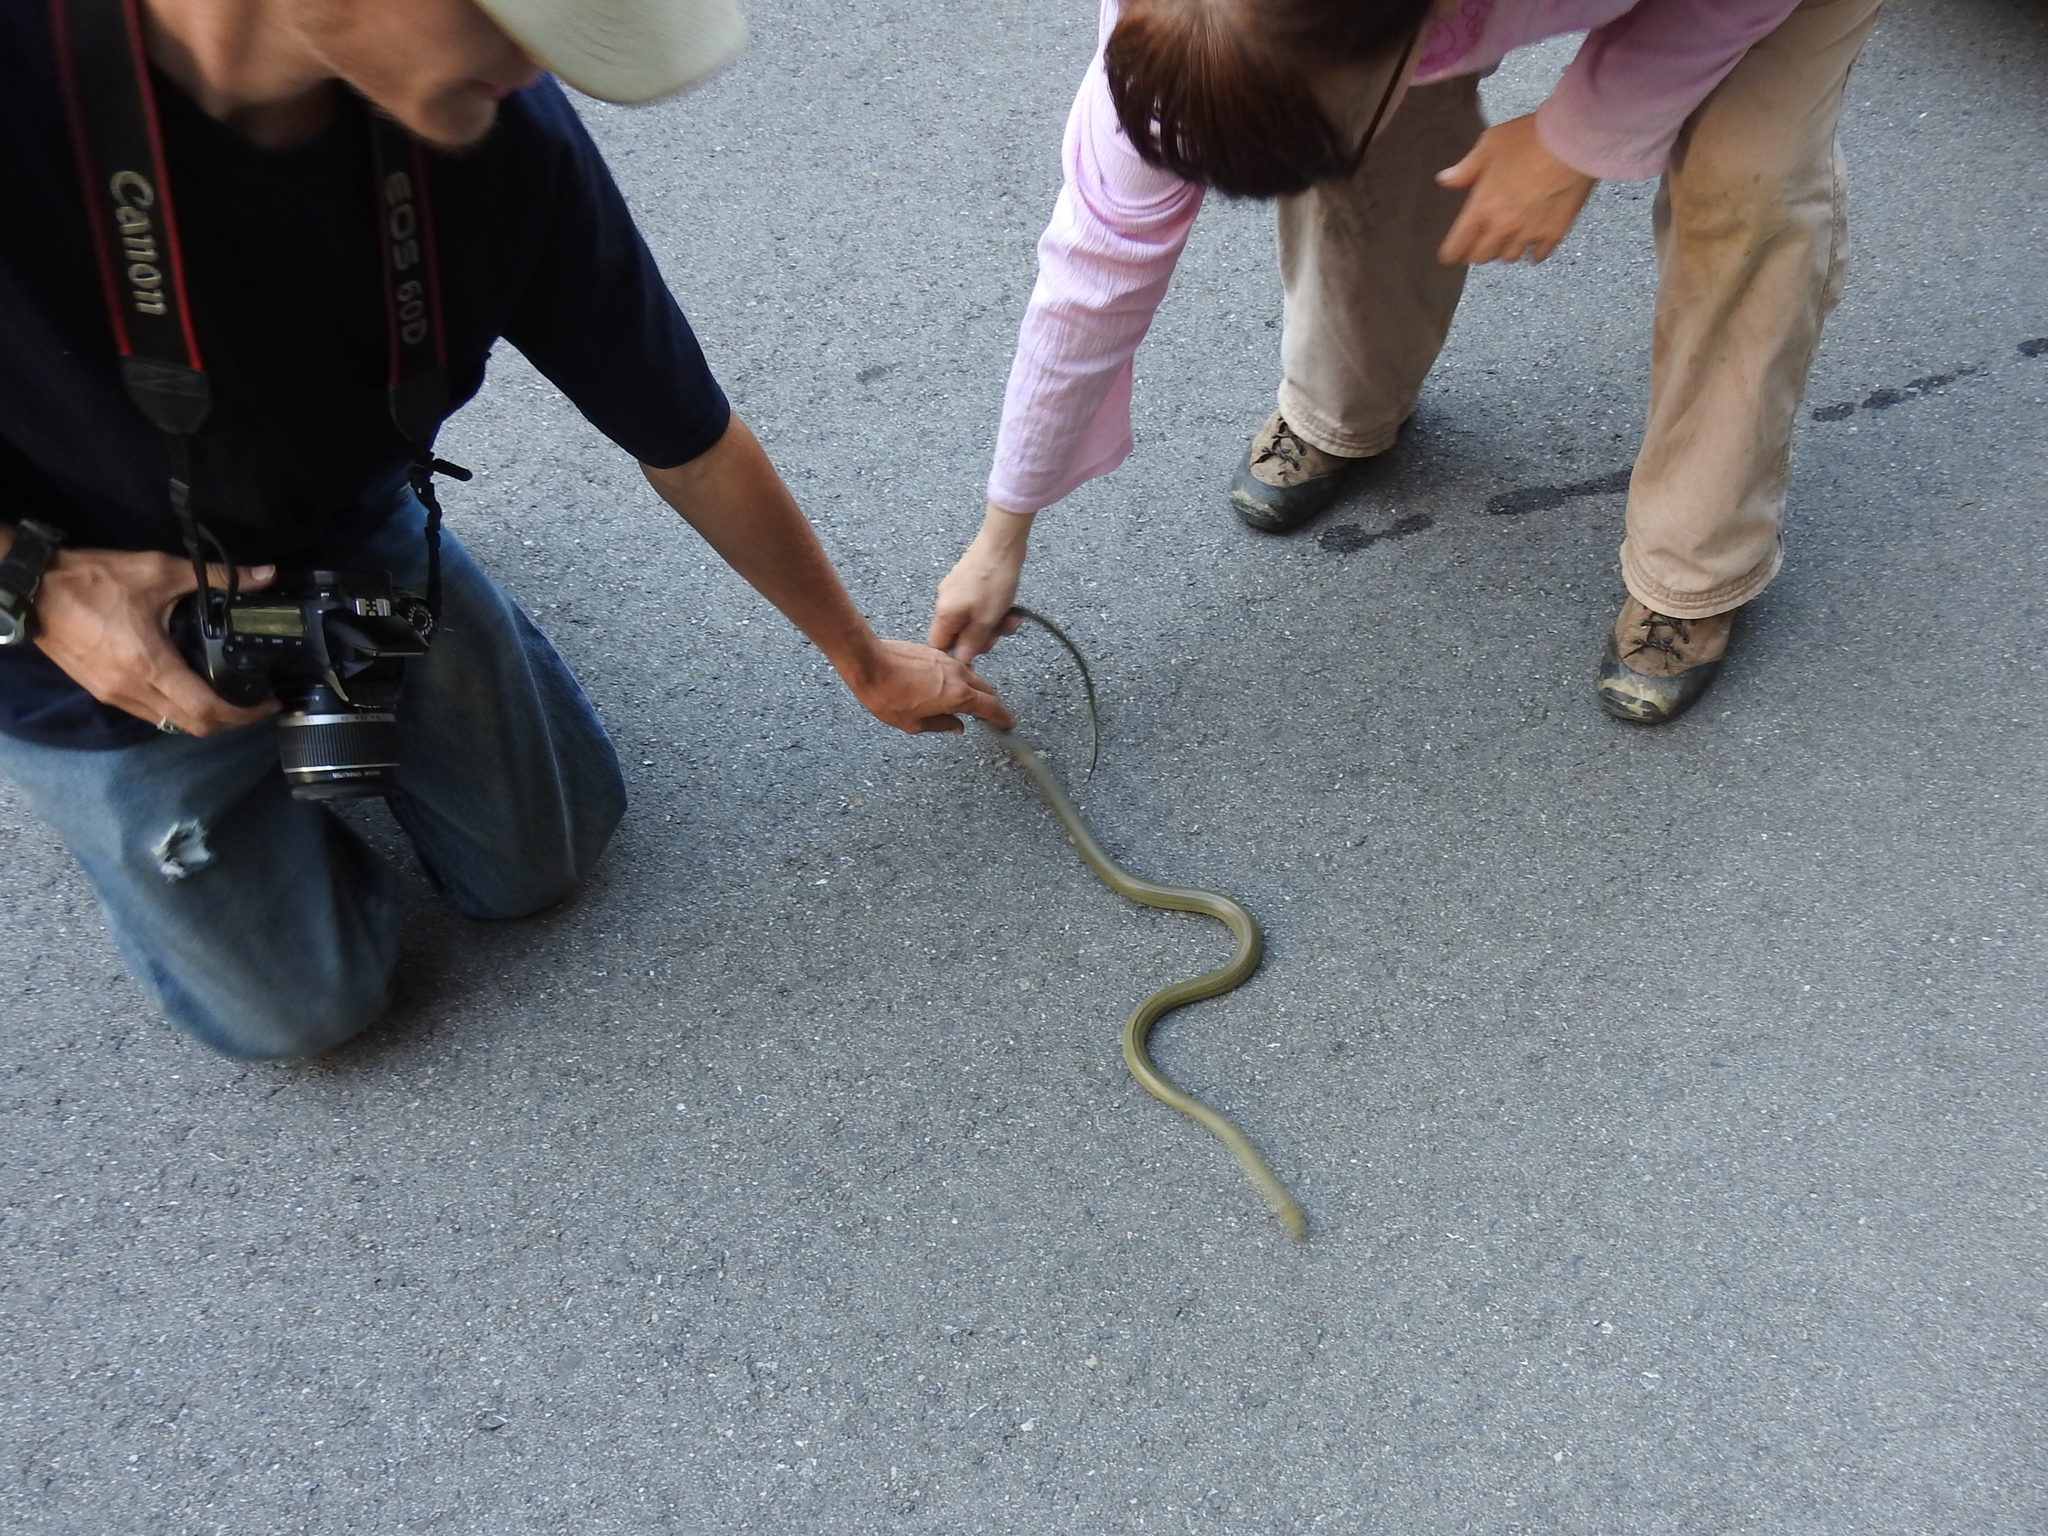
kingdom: Animalia
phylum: Chordata
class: Squamata
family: Colubridae
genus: Senticolis
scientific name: Senticolis triaspis
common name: Green rat snake
